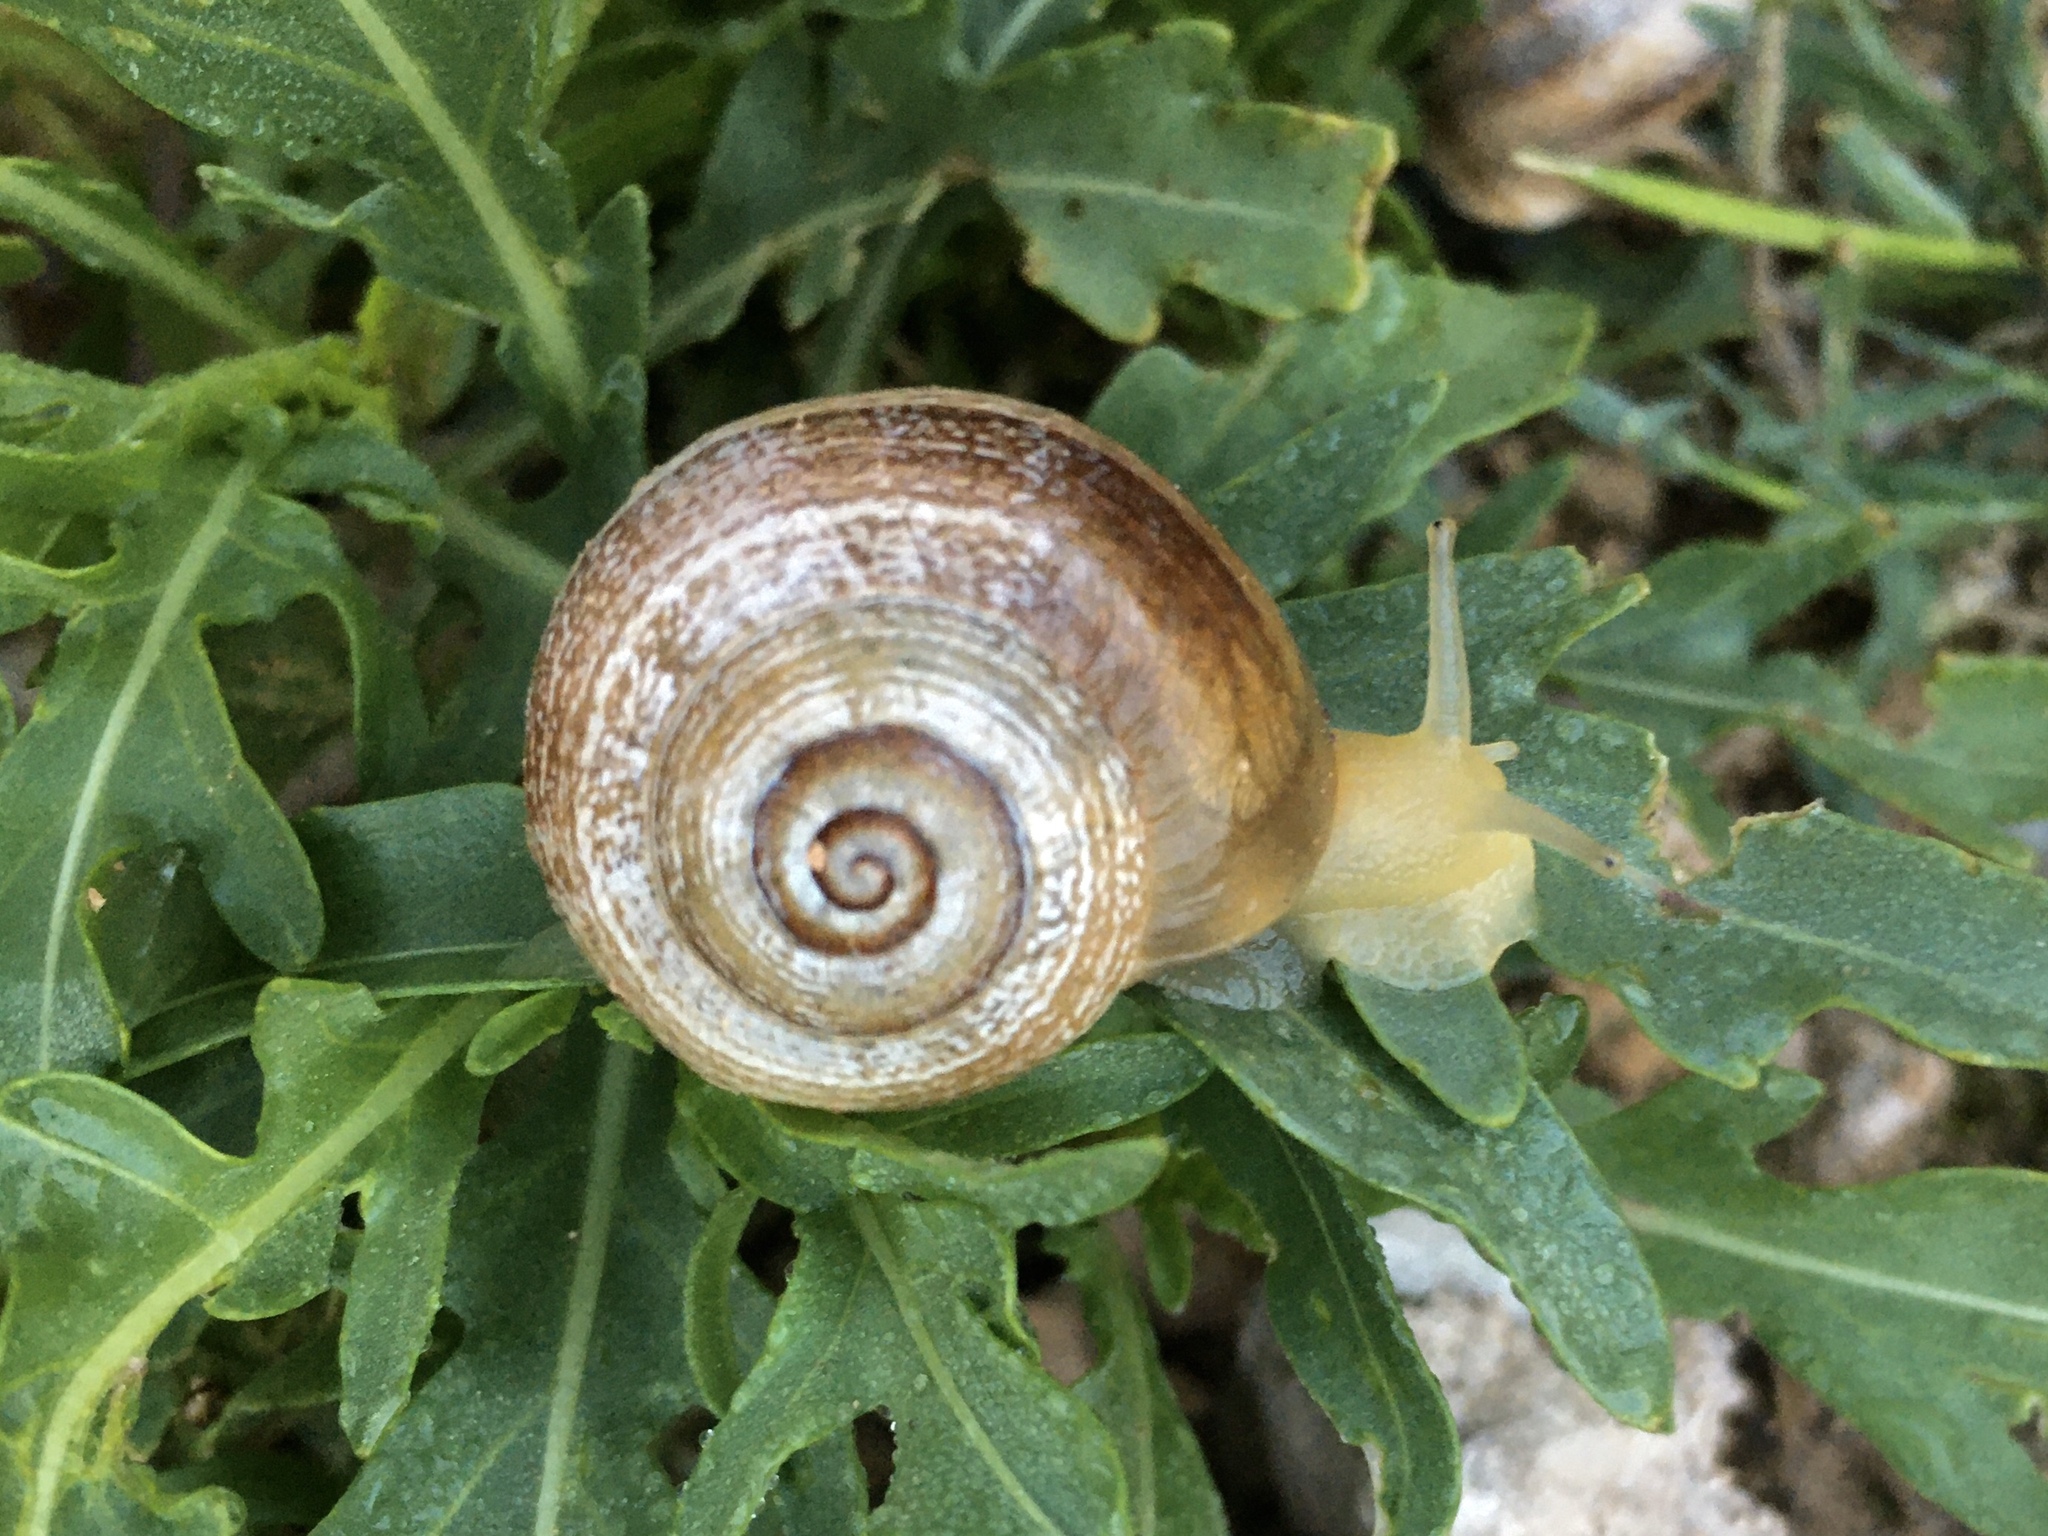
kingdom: Animalia
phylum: Mollusca
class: Gastropoda
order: Stylommatophora
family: Helicidae
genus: Otala
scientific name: Otala punctata
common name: Milk snail
